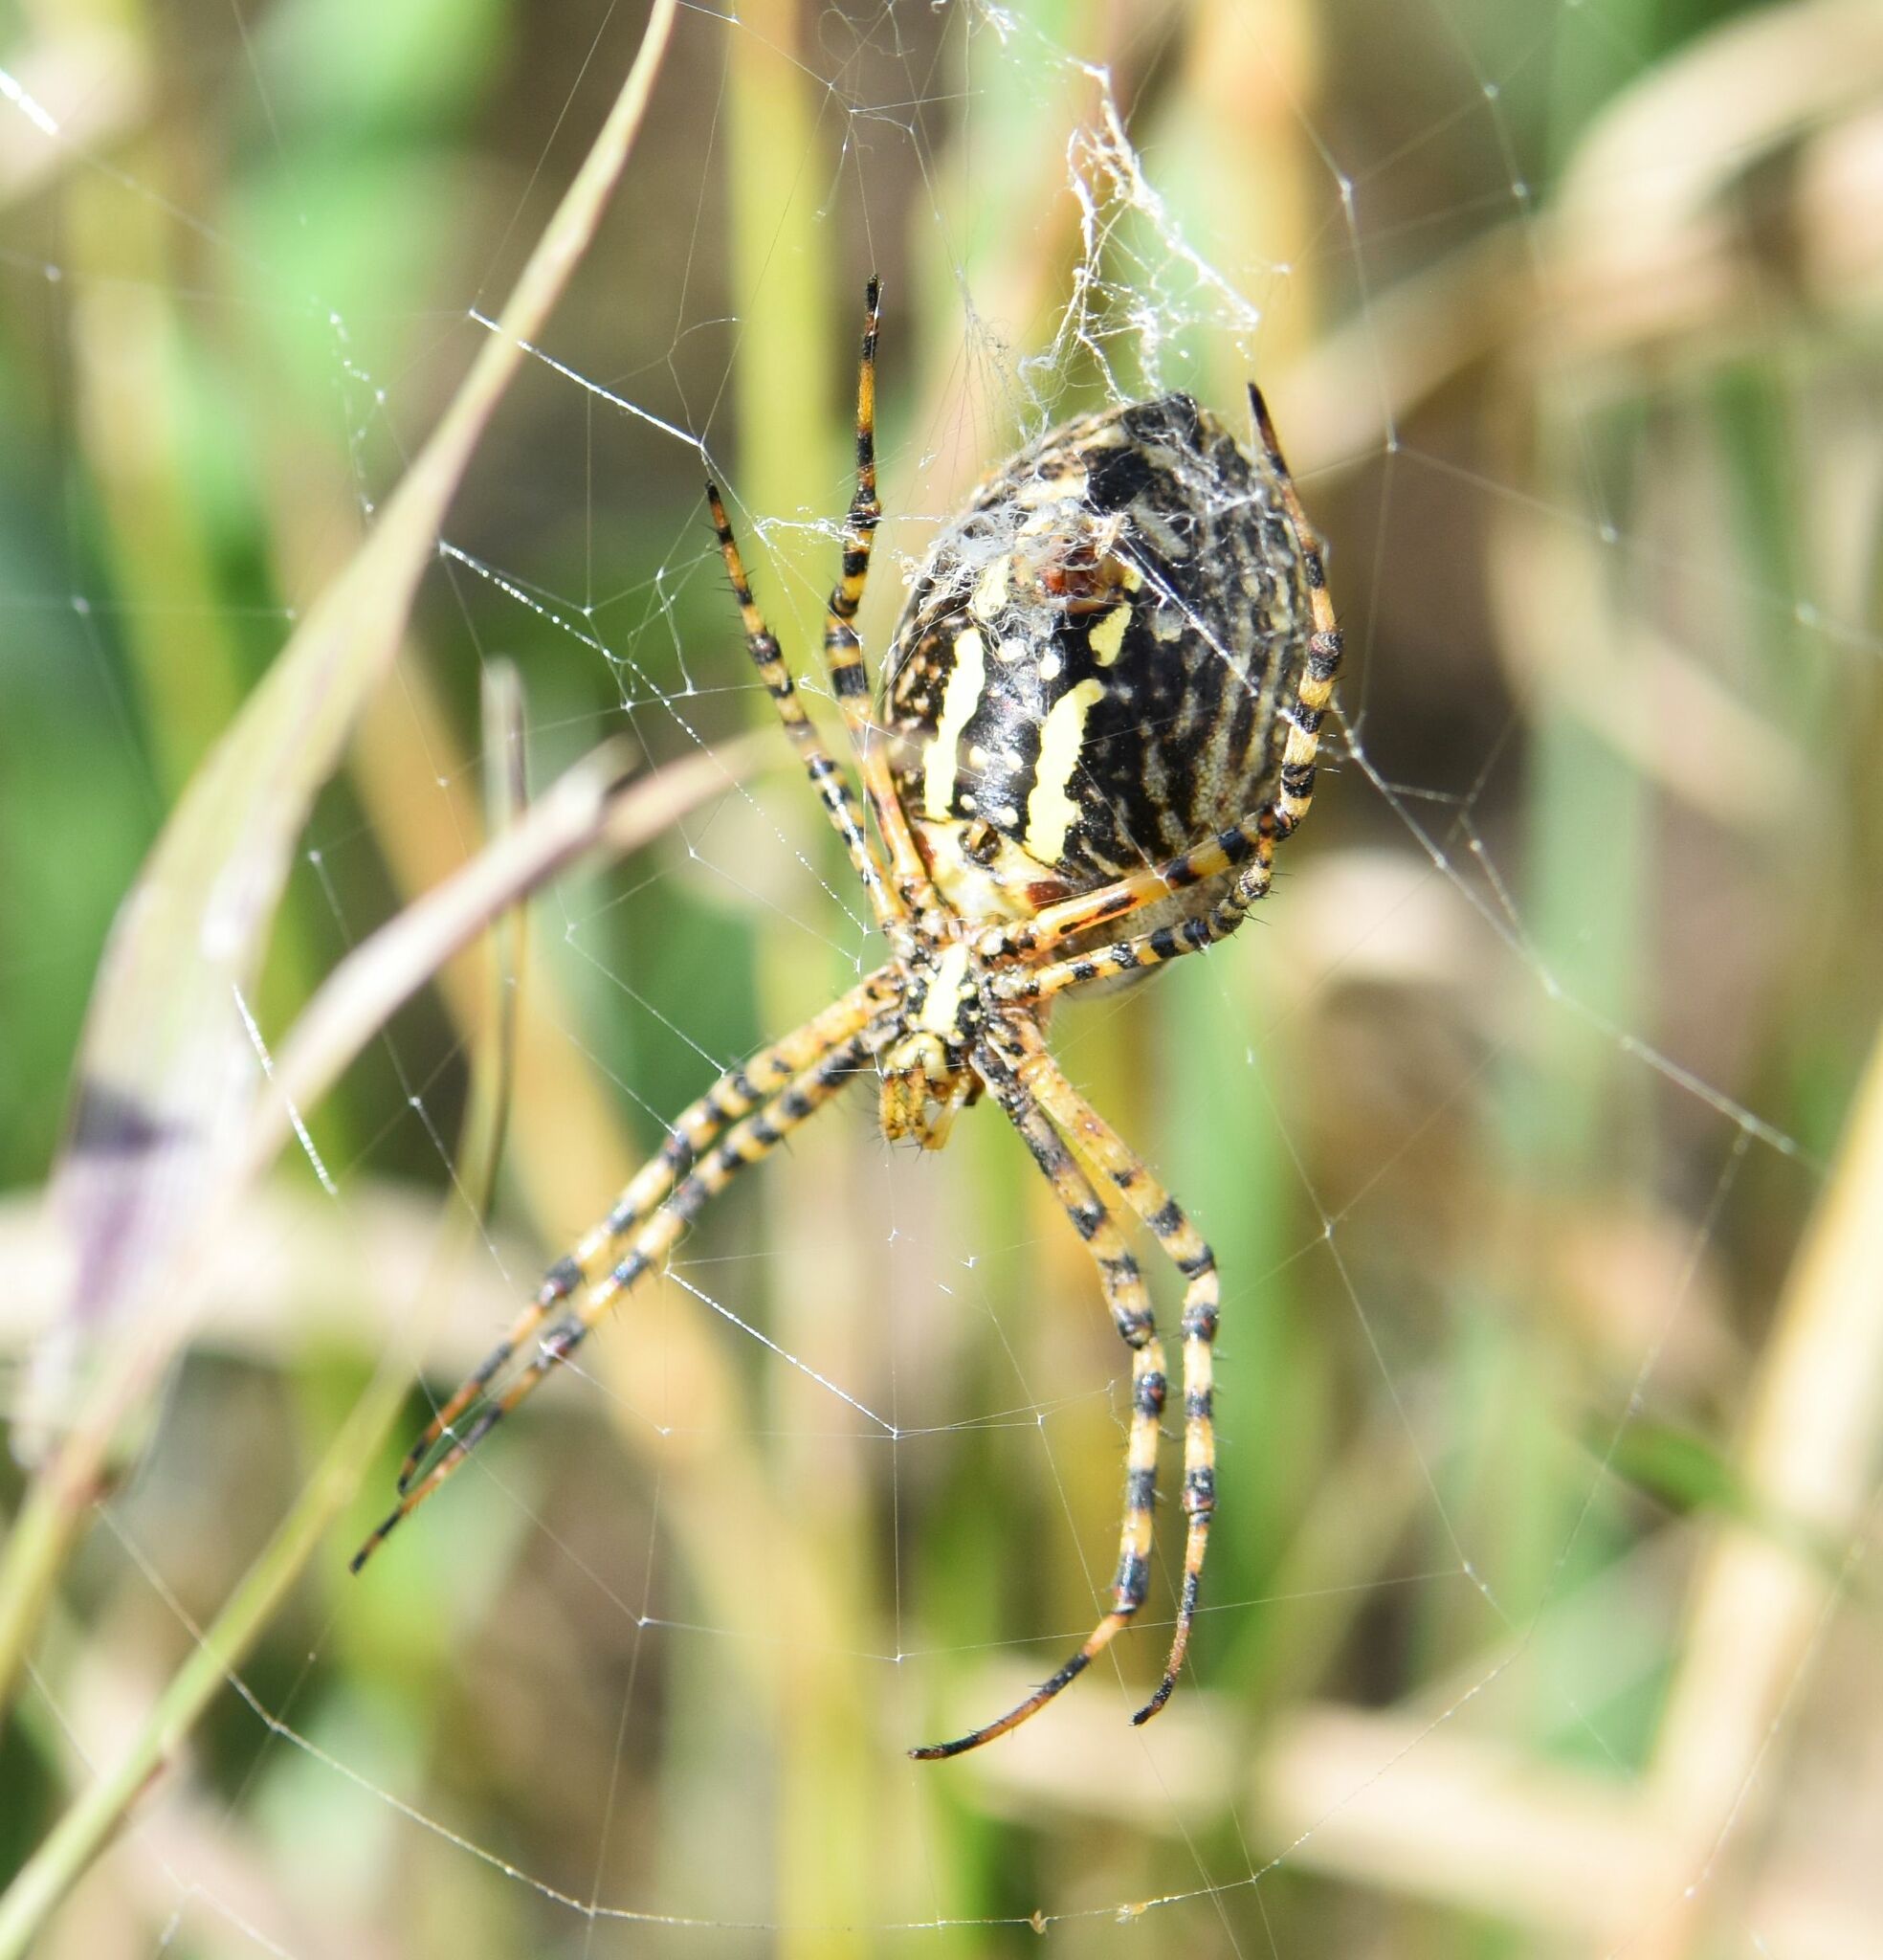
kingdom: Animalia
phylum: Arthropoda
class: Arachnida
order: Araneae
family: Araneidae
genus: Argiope
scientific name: Argiope trifasciata
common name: Banded garden spider
